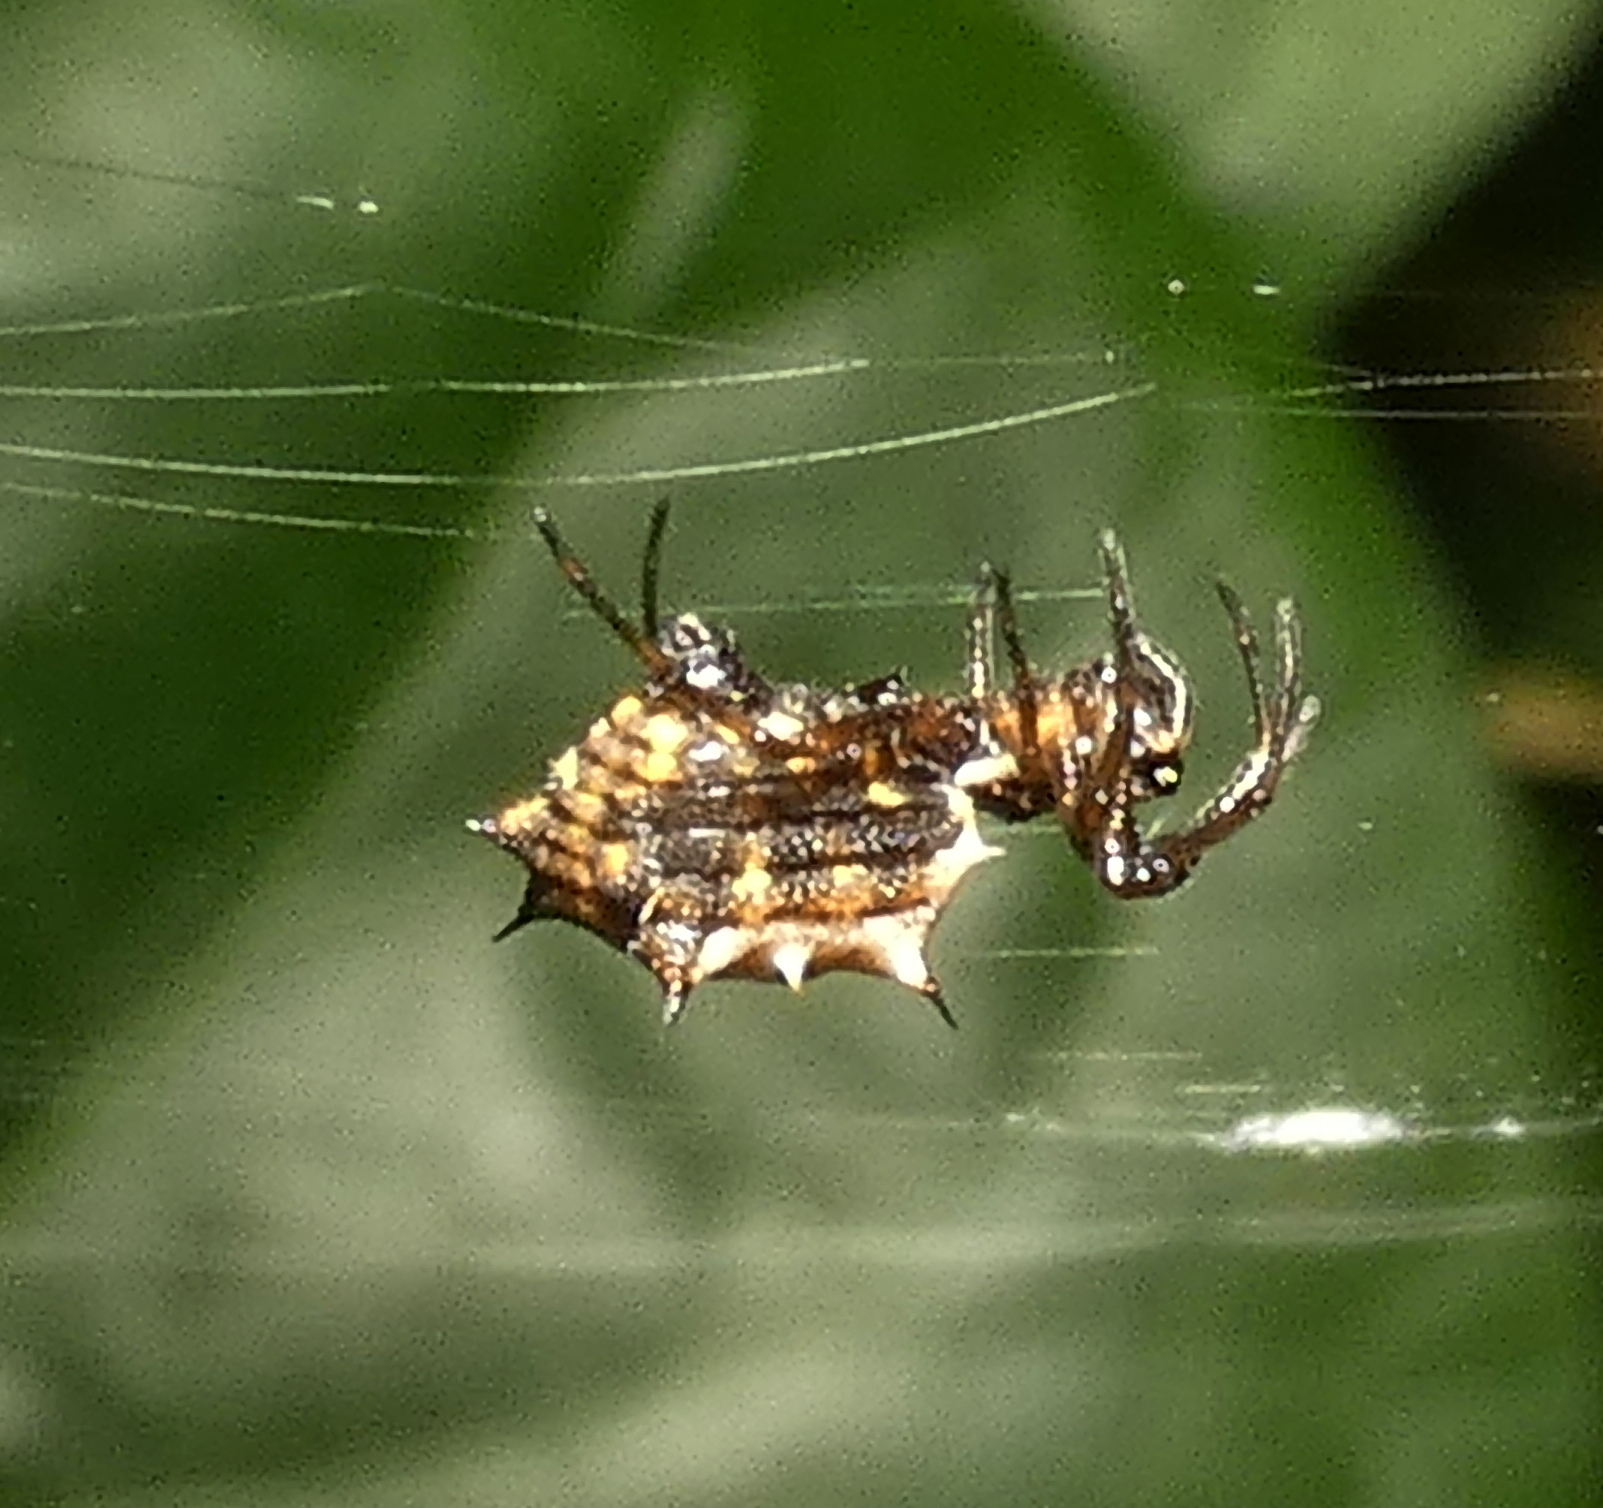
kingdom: Animalia
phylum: Arthropoda
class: Arachnida
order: Araneae
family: Araneidae
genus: Micrathena
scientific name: Micrathena picta
